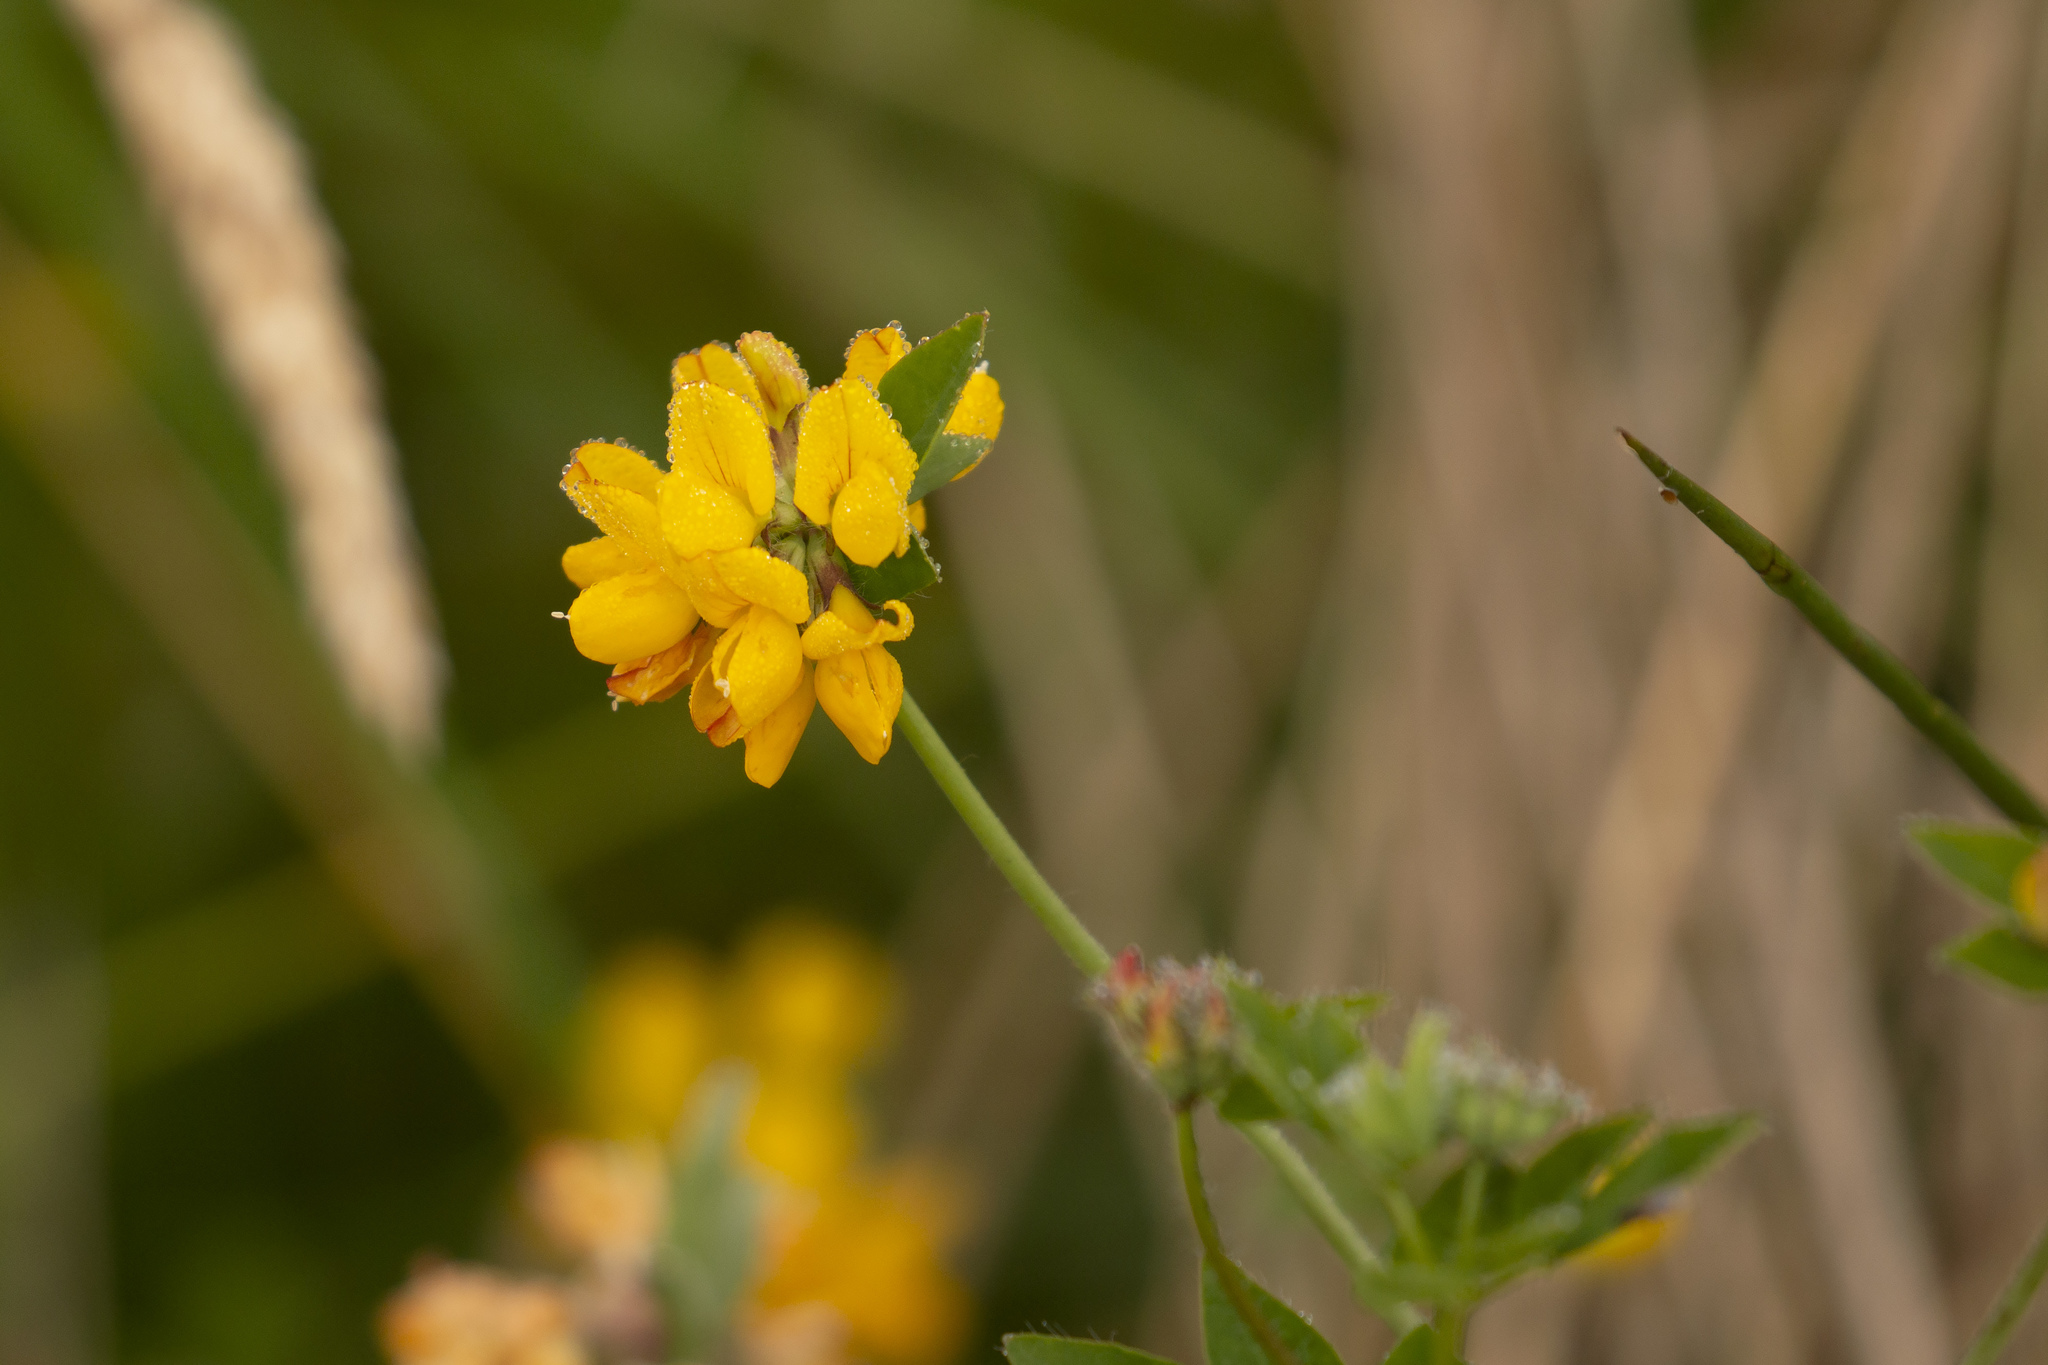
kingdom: Plantae
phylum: Tracheophyta
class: Magnoliopsida
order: Fabales
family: Fabaceae
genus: Lotus
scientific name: Lotus pedunculatus
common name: Greater birdsfoot-trefoil
